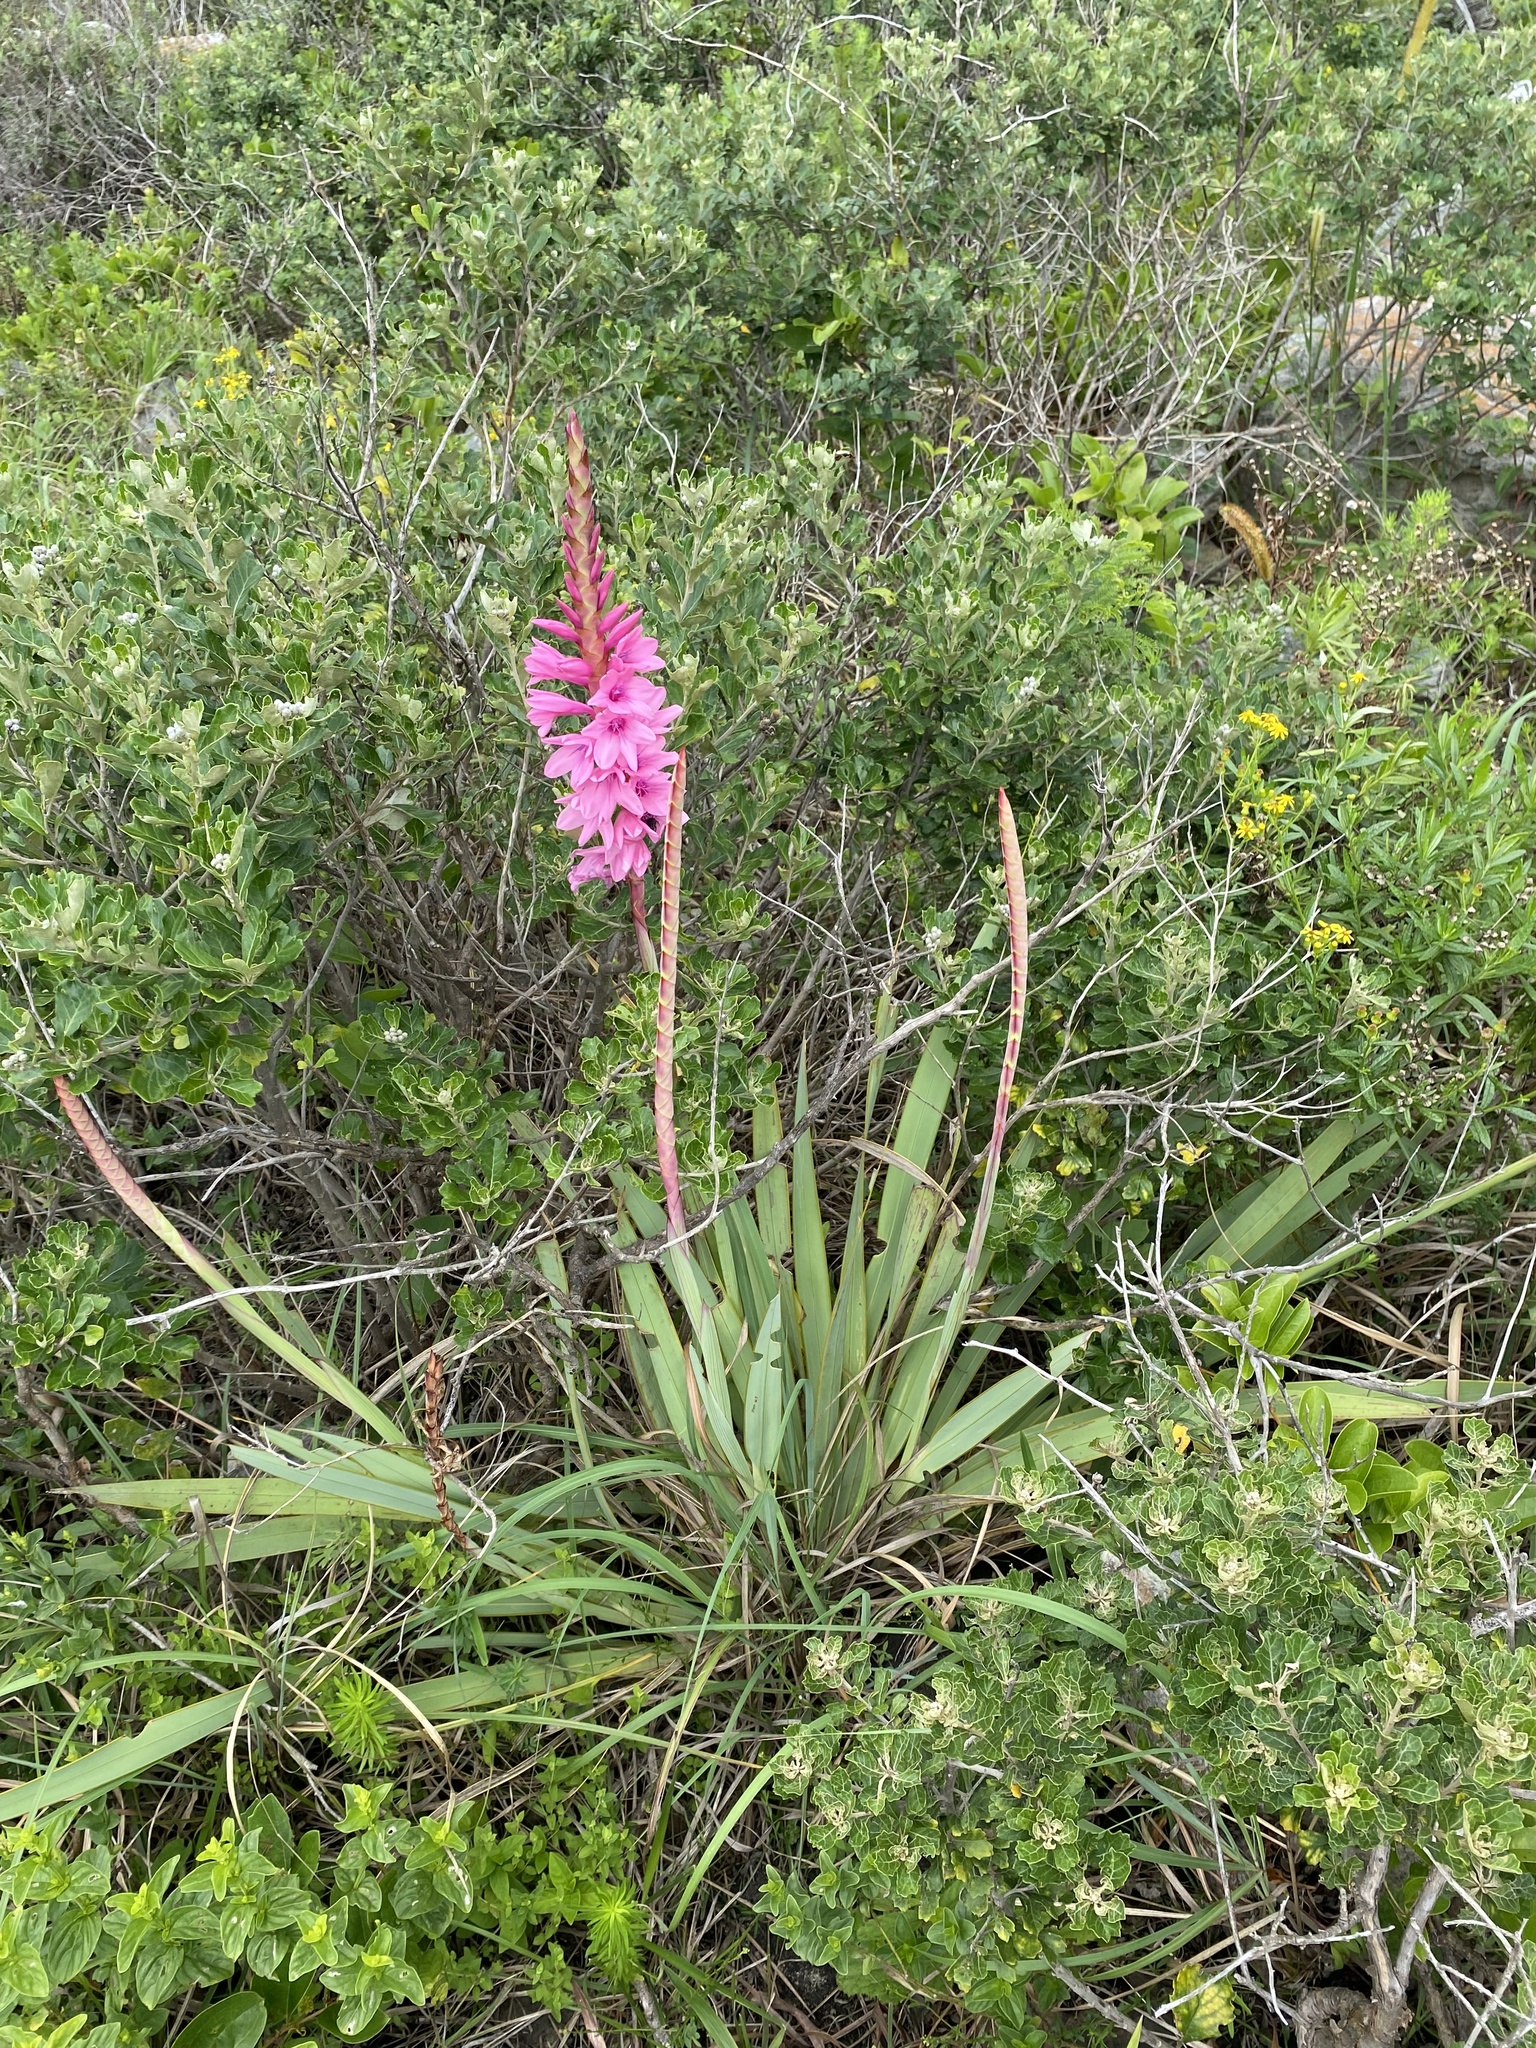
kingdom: Plantae
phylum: Tracheophyta
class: Liliopsida
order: Asparagales
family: Iridaceae
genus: Watsonia
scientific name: Watsonia densiflora
